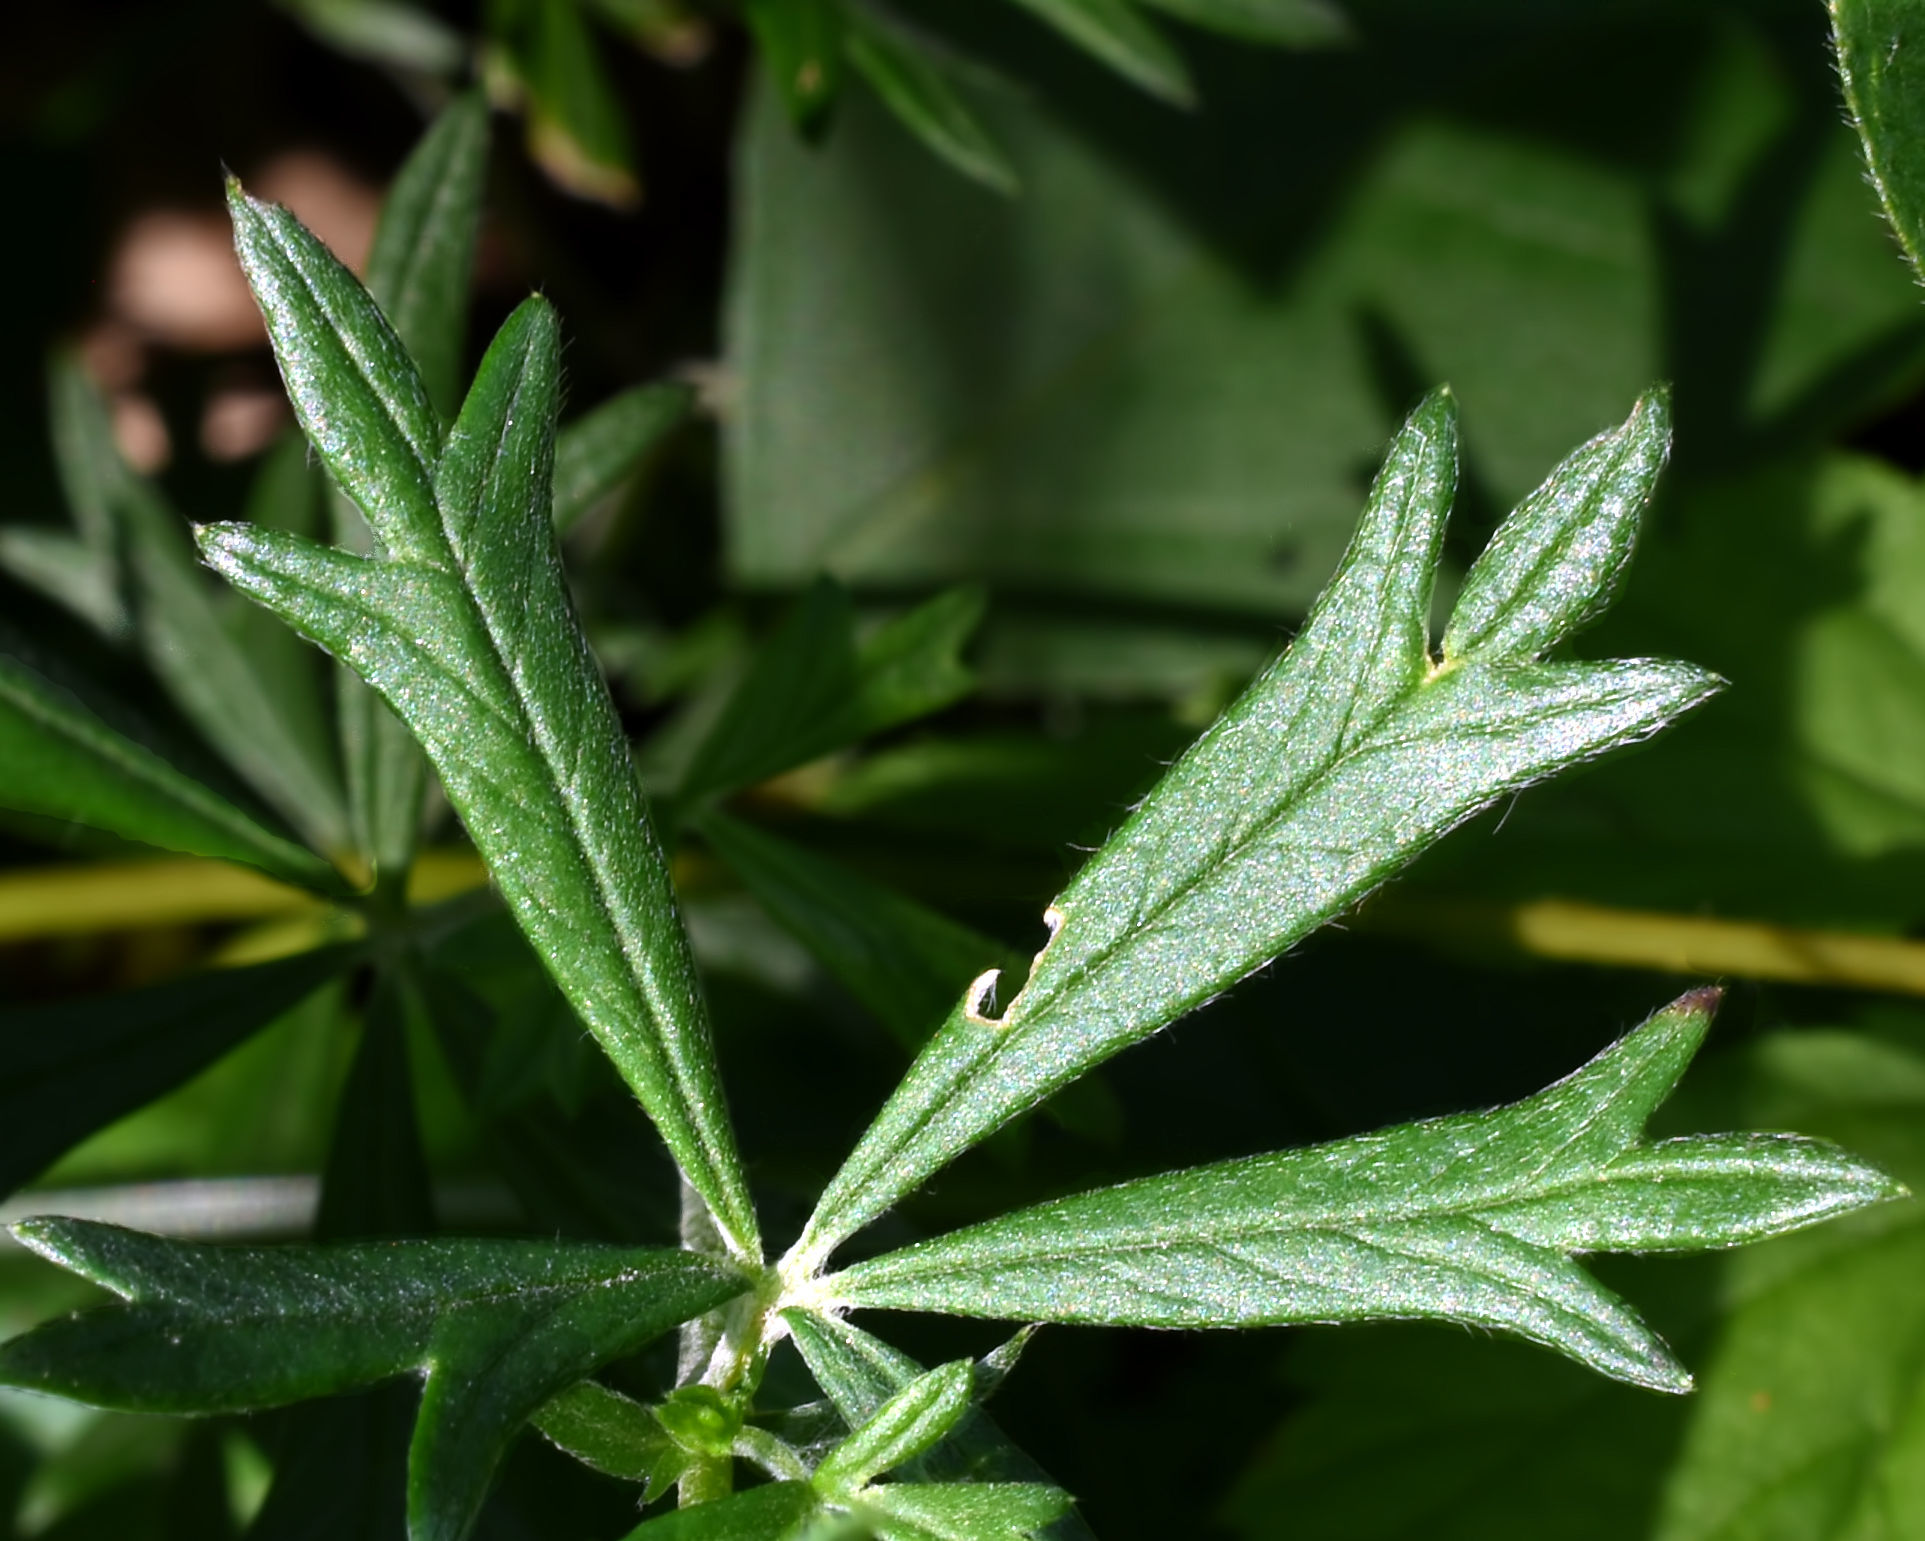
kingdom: Plantae
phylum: Tracheophyta
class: Magnoliopsida
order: Rosales
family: Rosaceae
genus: Potentilla
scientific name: Potentilla argentea
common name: Hoary cinquefoil
